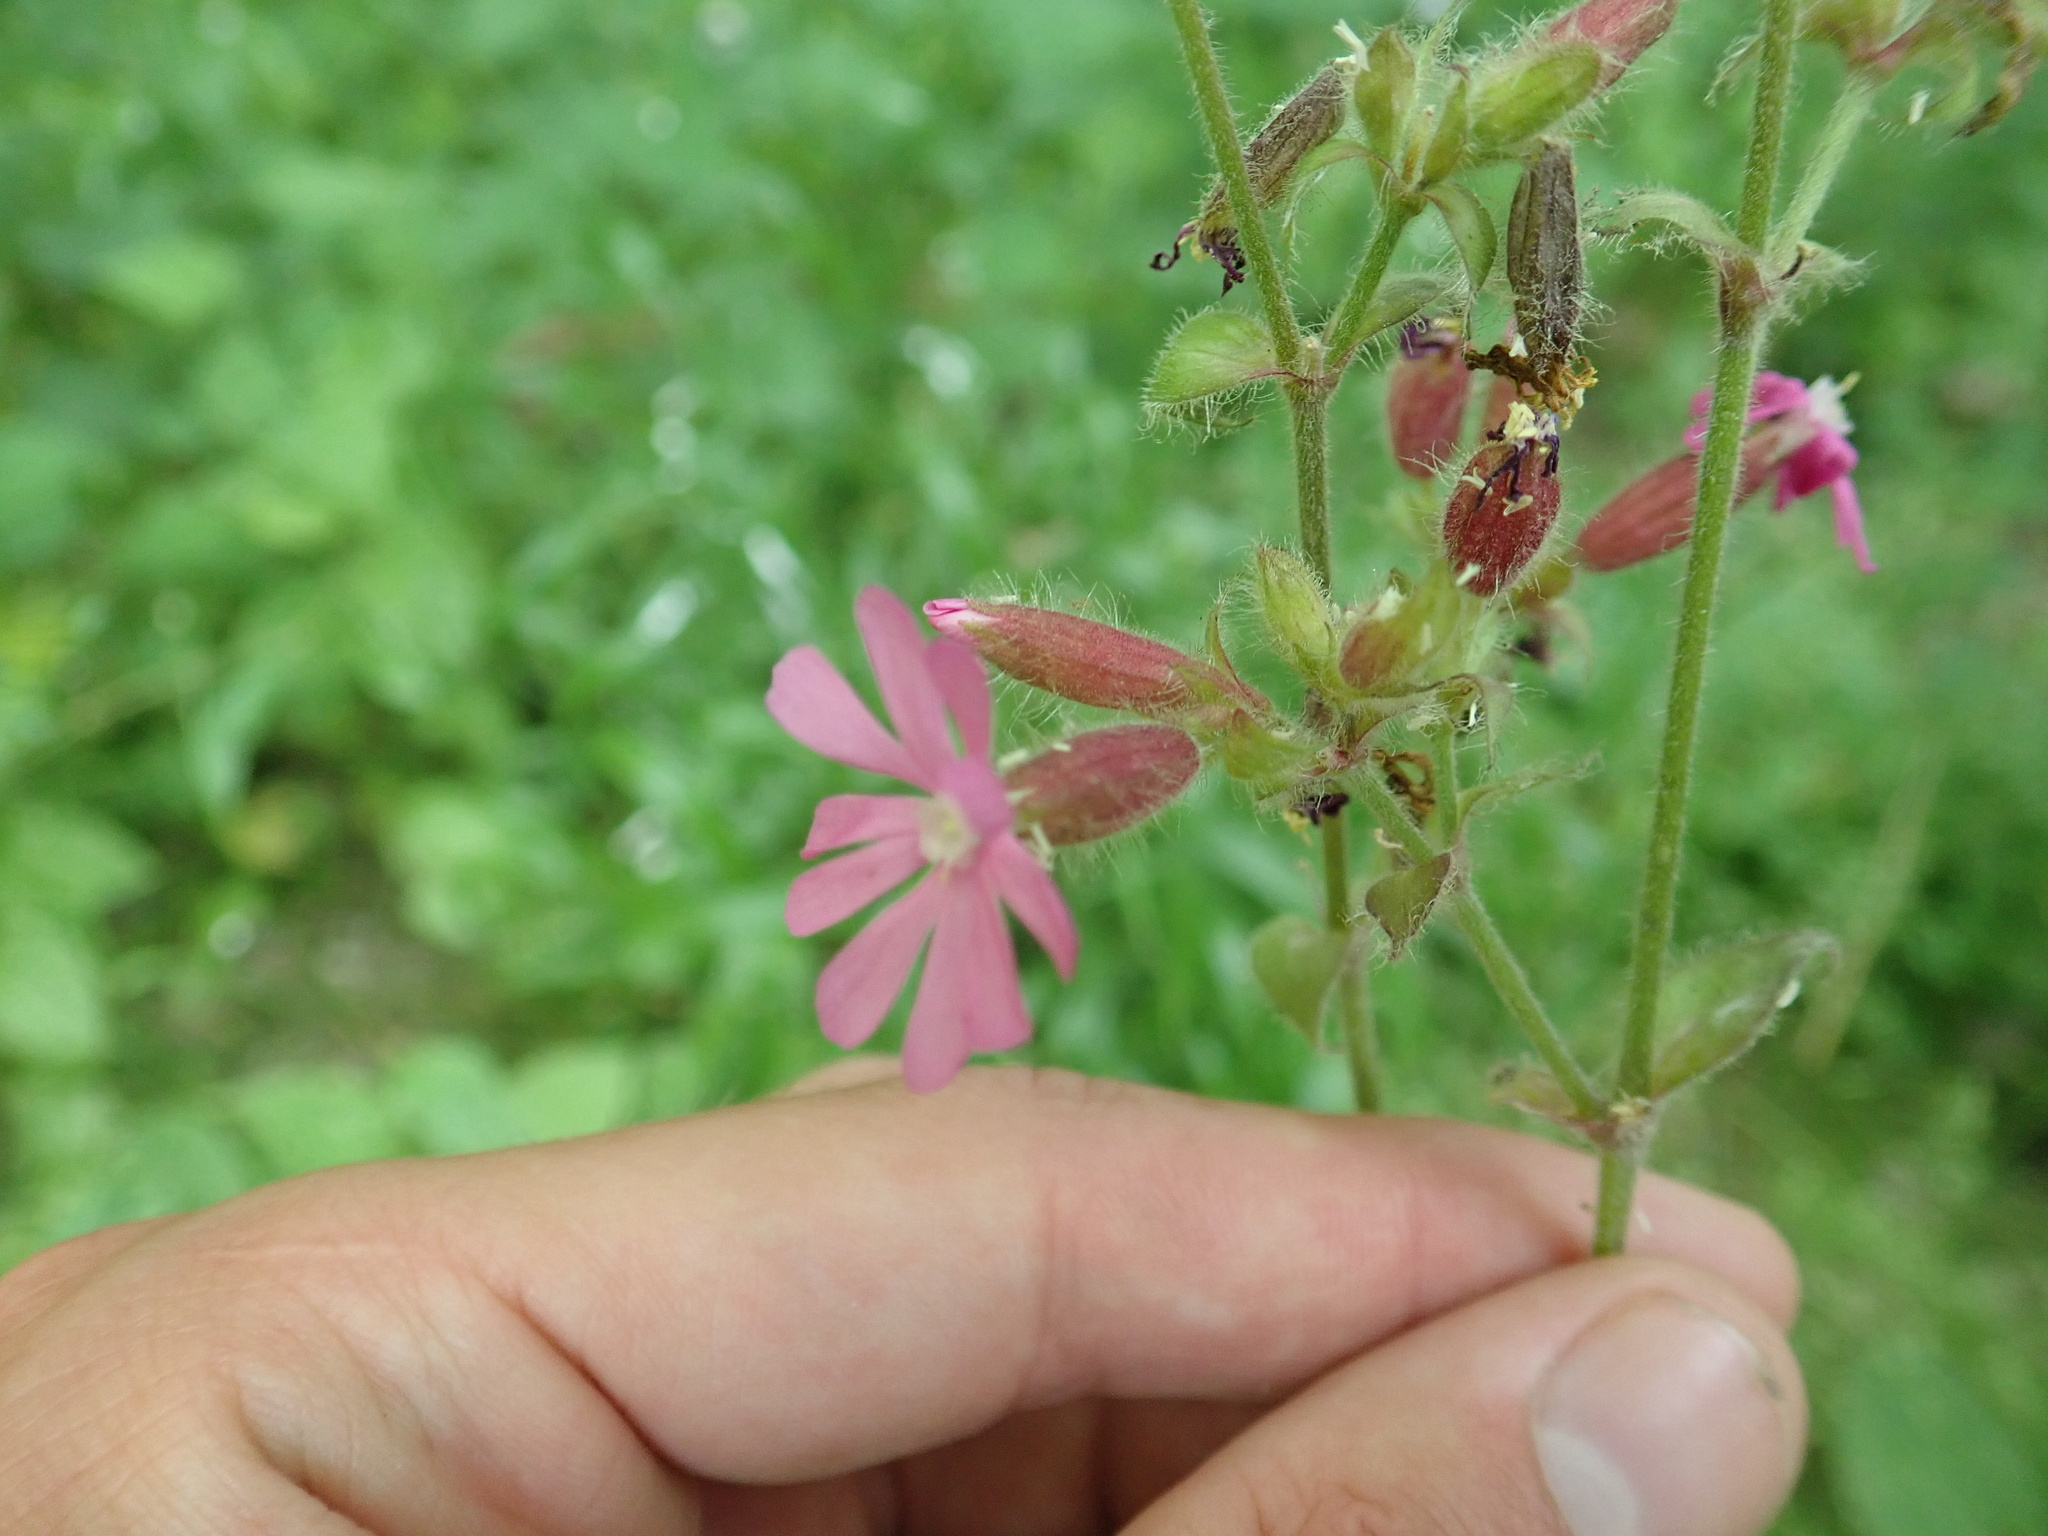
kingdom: Plantae
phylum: Tracheophyta
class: Magnoliopsida
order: Caryophyllales
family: Caryophyllaceae
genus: Silene
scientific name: Silene dioica
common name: Red campion
